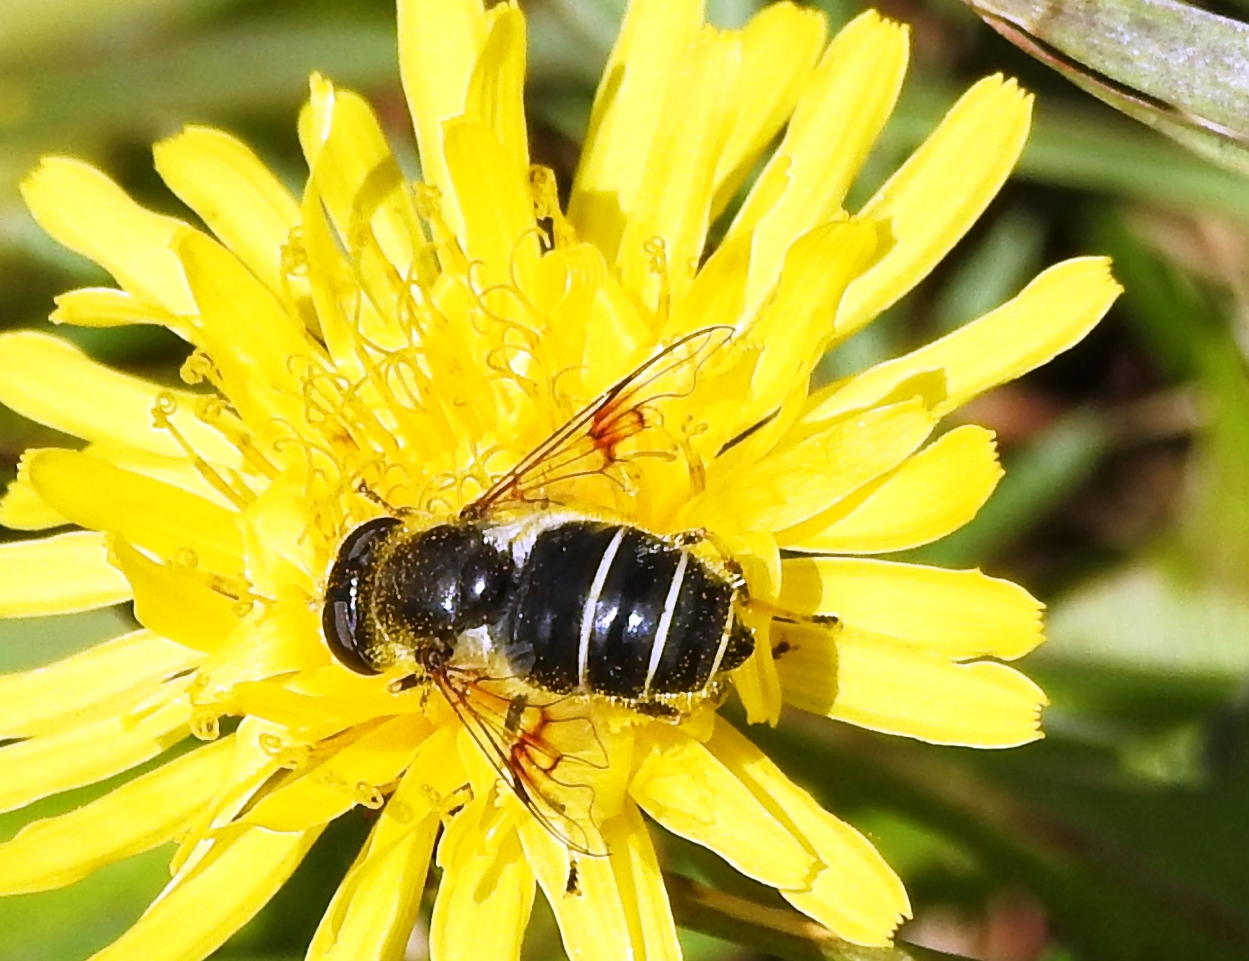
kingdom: Animalia
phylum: Arthropoda
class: Insecta
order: Diptera
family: Syrphidae
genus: Eristalis
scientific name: Eristalis rupium
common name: Hover fly
